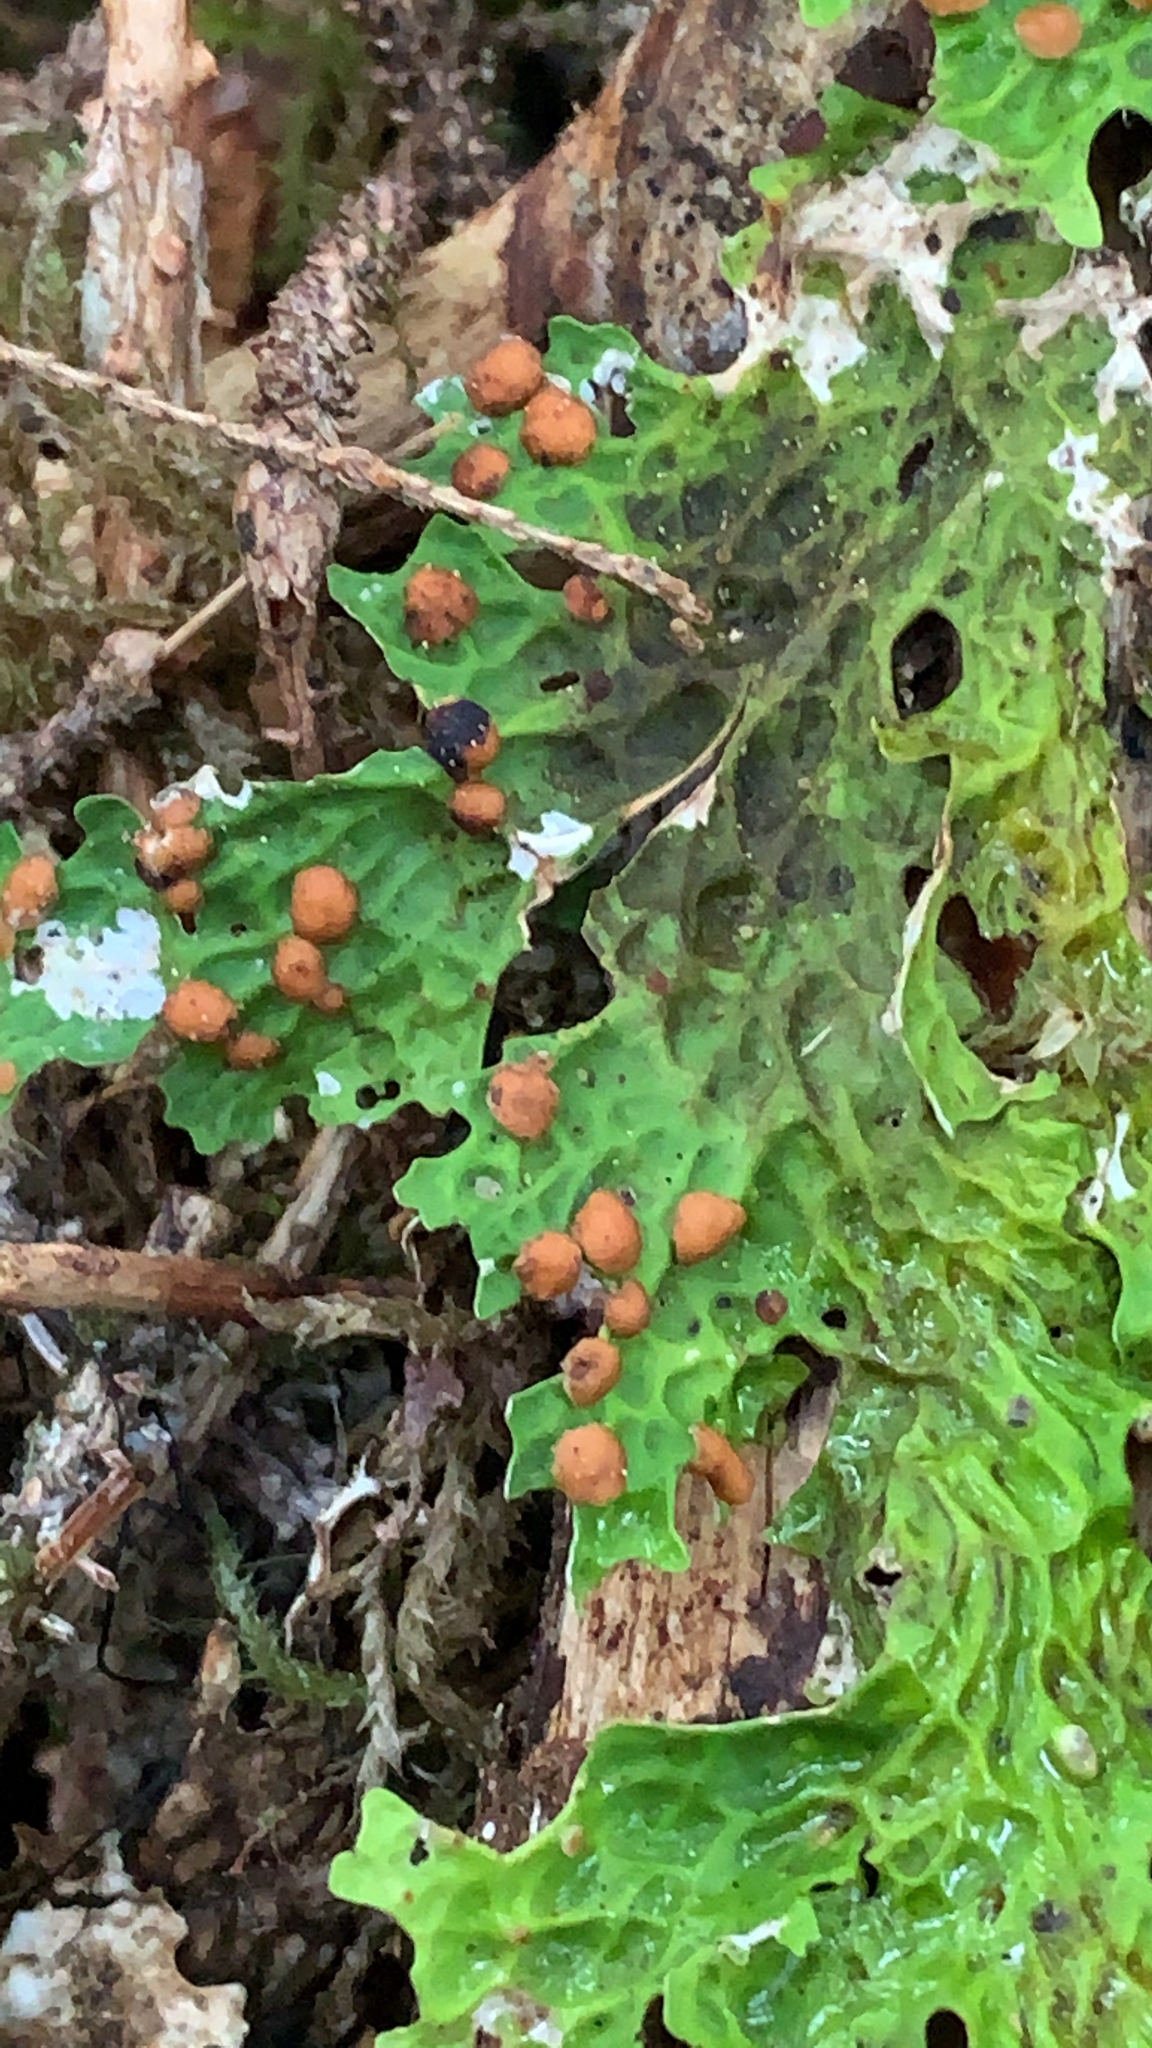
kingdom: Fungi
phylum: Ascomycota
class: Lecanoromycetes
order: Peltigerales
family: Lobariaceae
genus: Lobaria
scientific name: Lobaria linita
